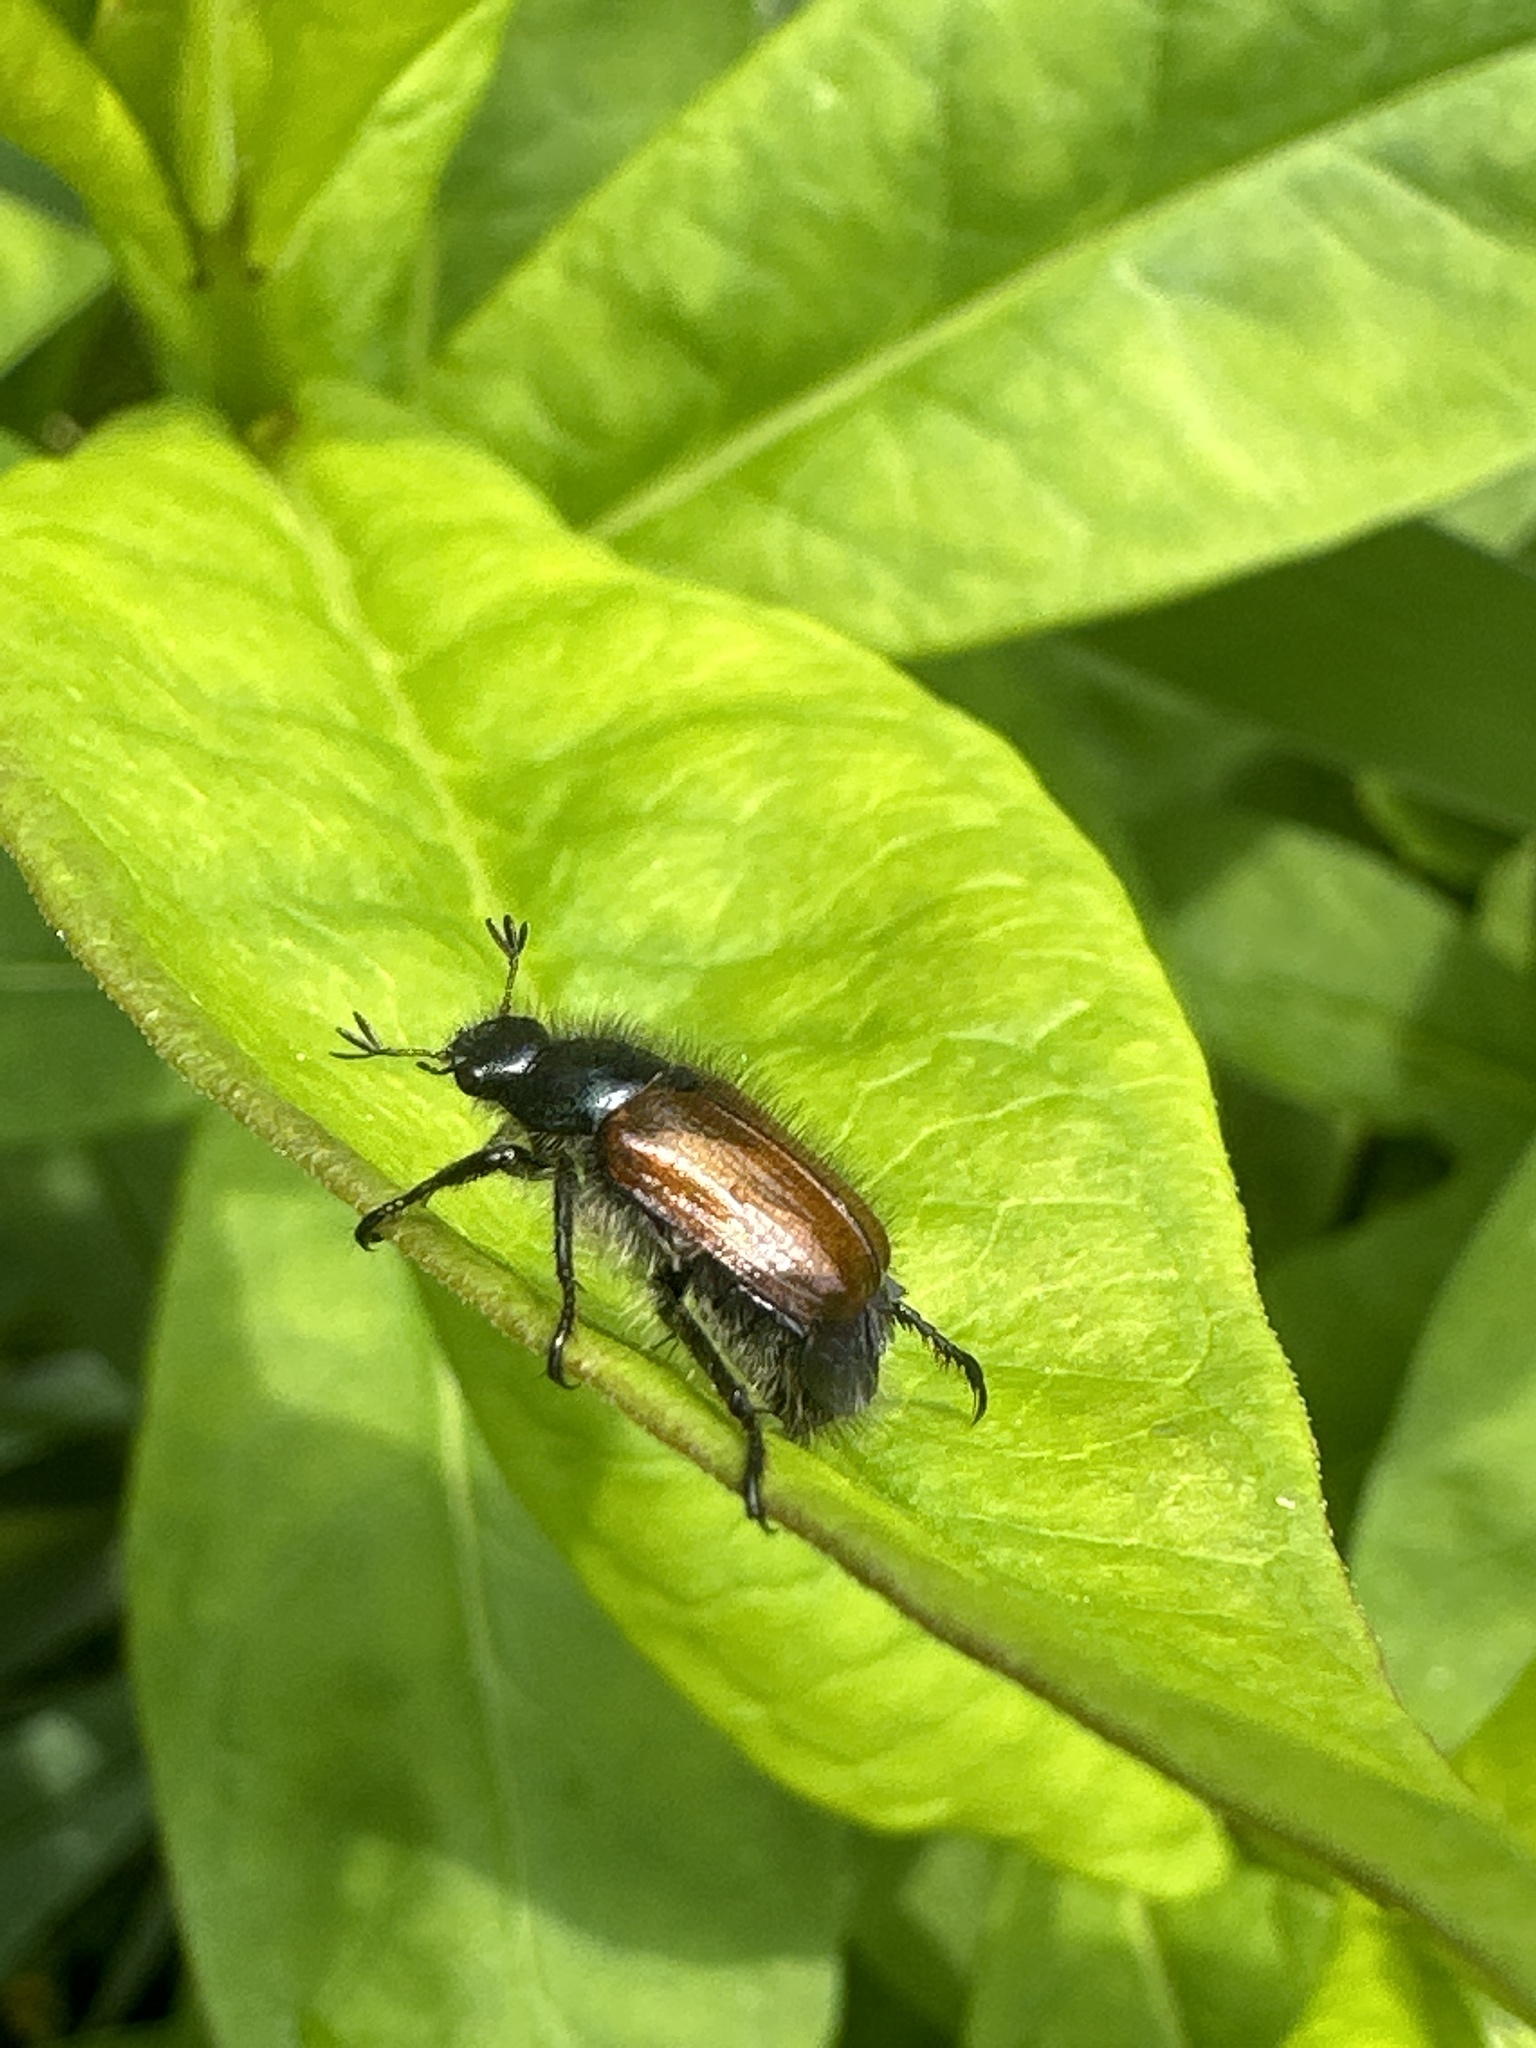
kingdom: Animalia
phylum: Arthropoda
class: Insecta
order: Coleoptera
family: Scarabaeidae
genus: Phyllopertha
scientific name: Phyllopertha horticola
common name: Garden chafer
